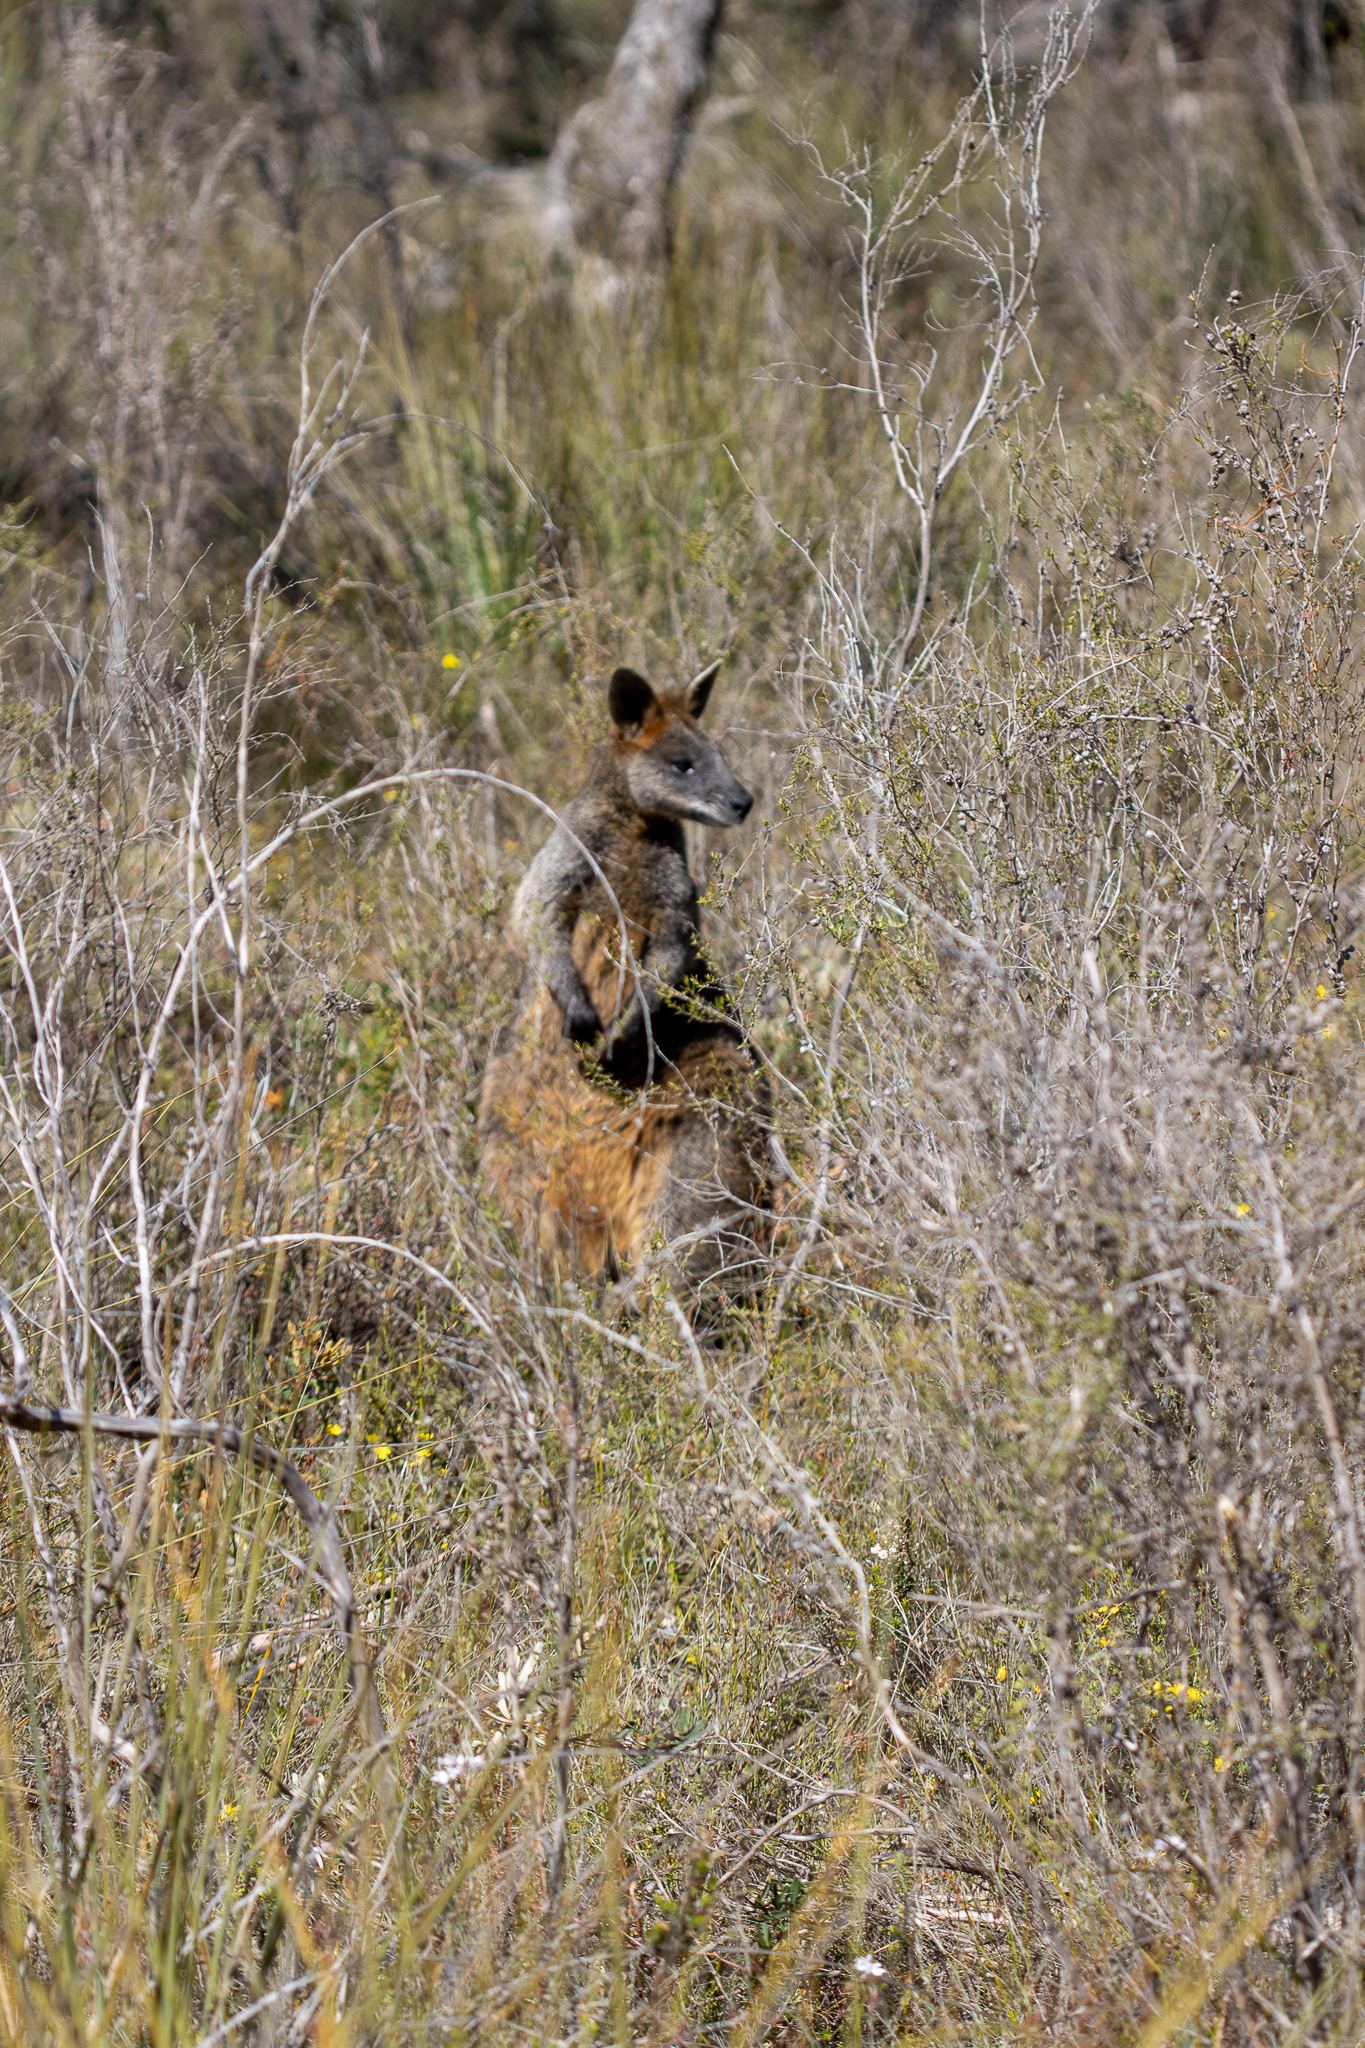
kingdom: Animalia
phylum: Chordata
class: Mammalia
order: Diprotodontia
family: Macropodidae
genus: Wallabia
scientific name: Wallabia bicolor
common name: Swamp wallaby
